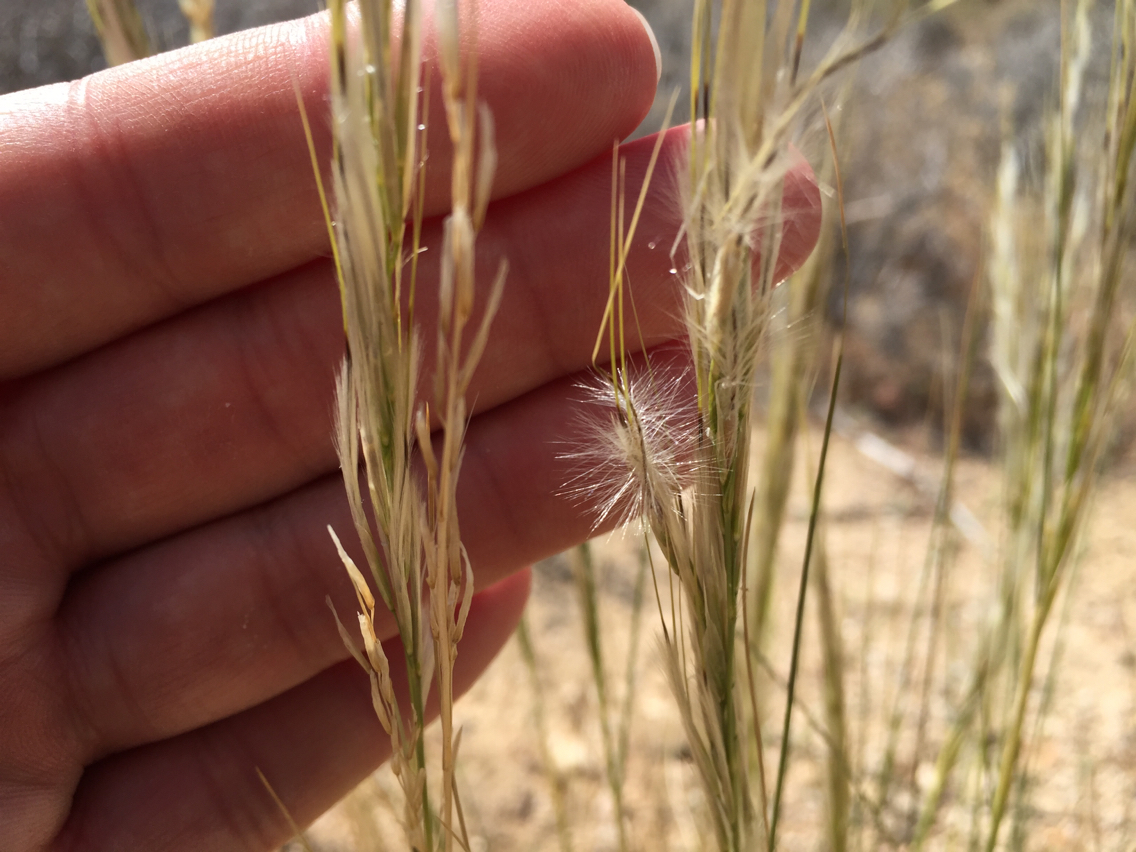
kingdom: Plantae
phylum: Tracheophyta
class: Liliopsida
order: Poales
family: Poaceae
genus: Pappostipa
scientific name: Pappostipa speciosa
